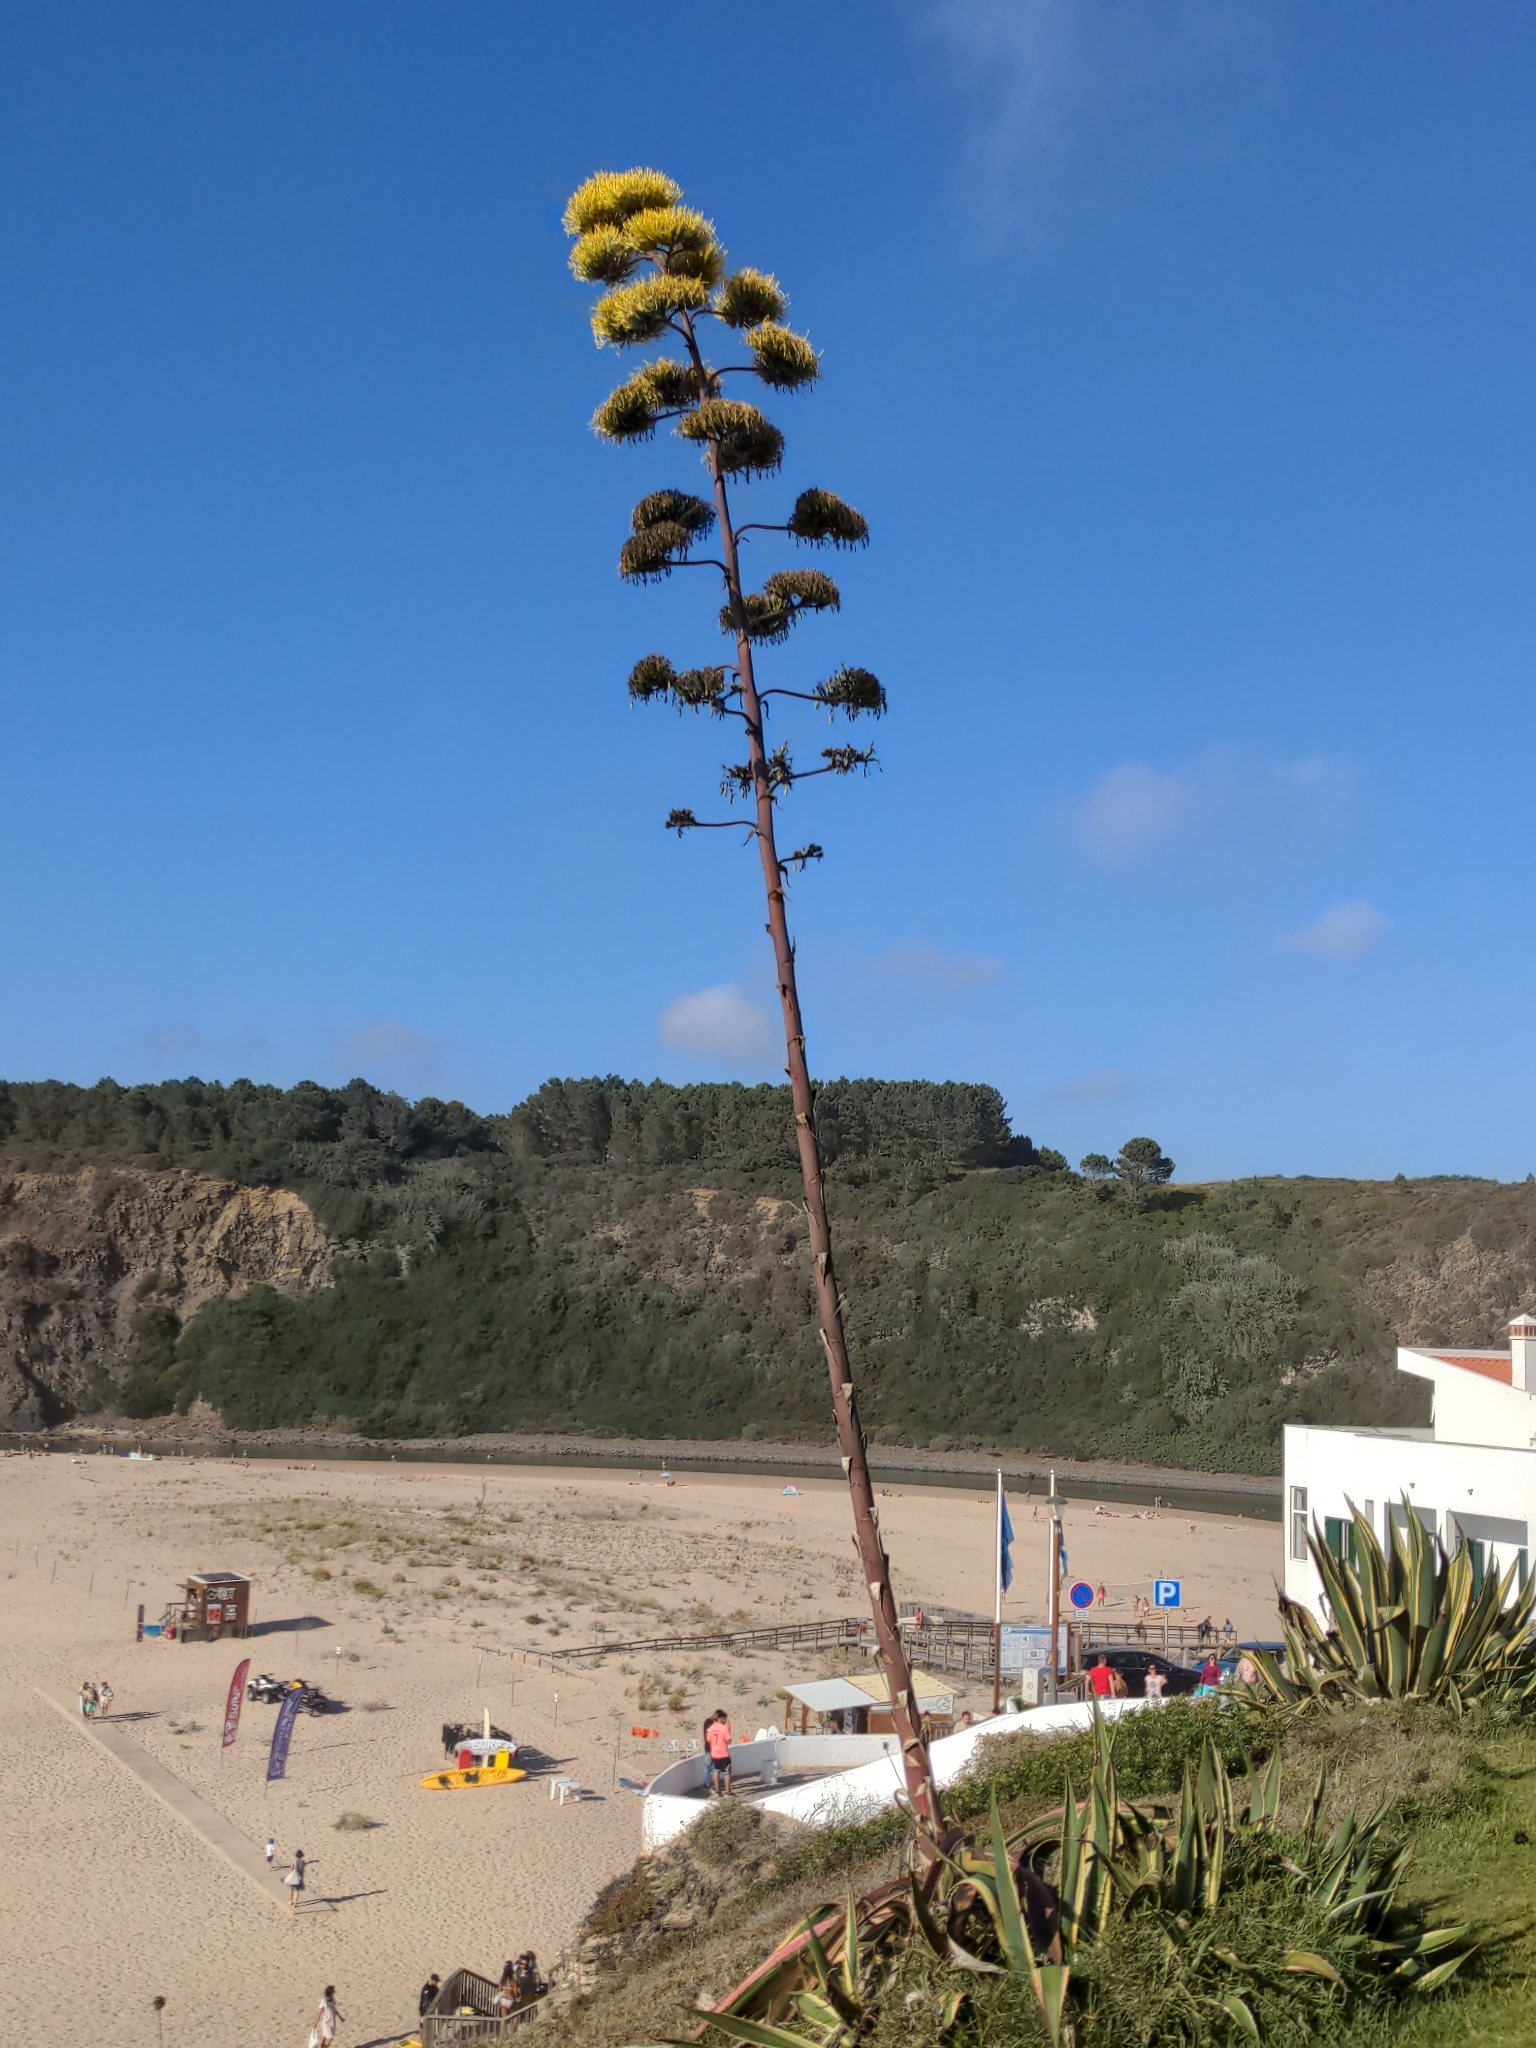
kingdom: Plantae
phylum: Tracheophyta
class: Liliopsida
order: Asparagales
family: Asparagaceae
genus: Agave
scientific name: Agave americana
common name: Centuryplant
